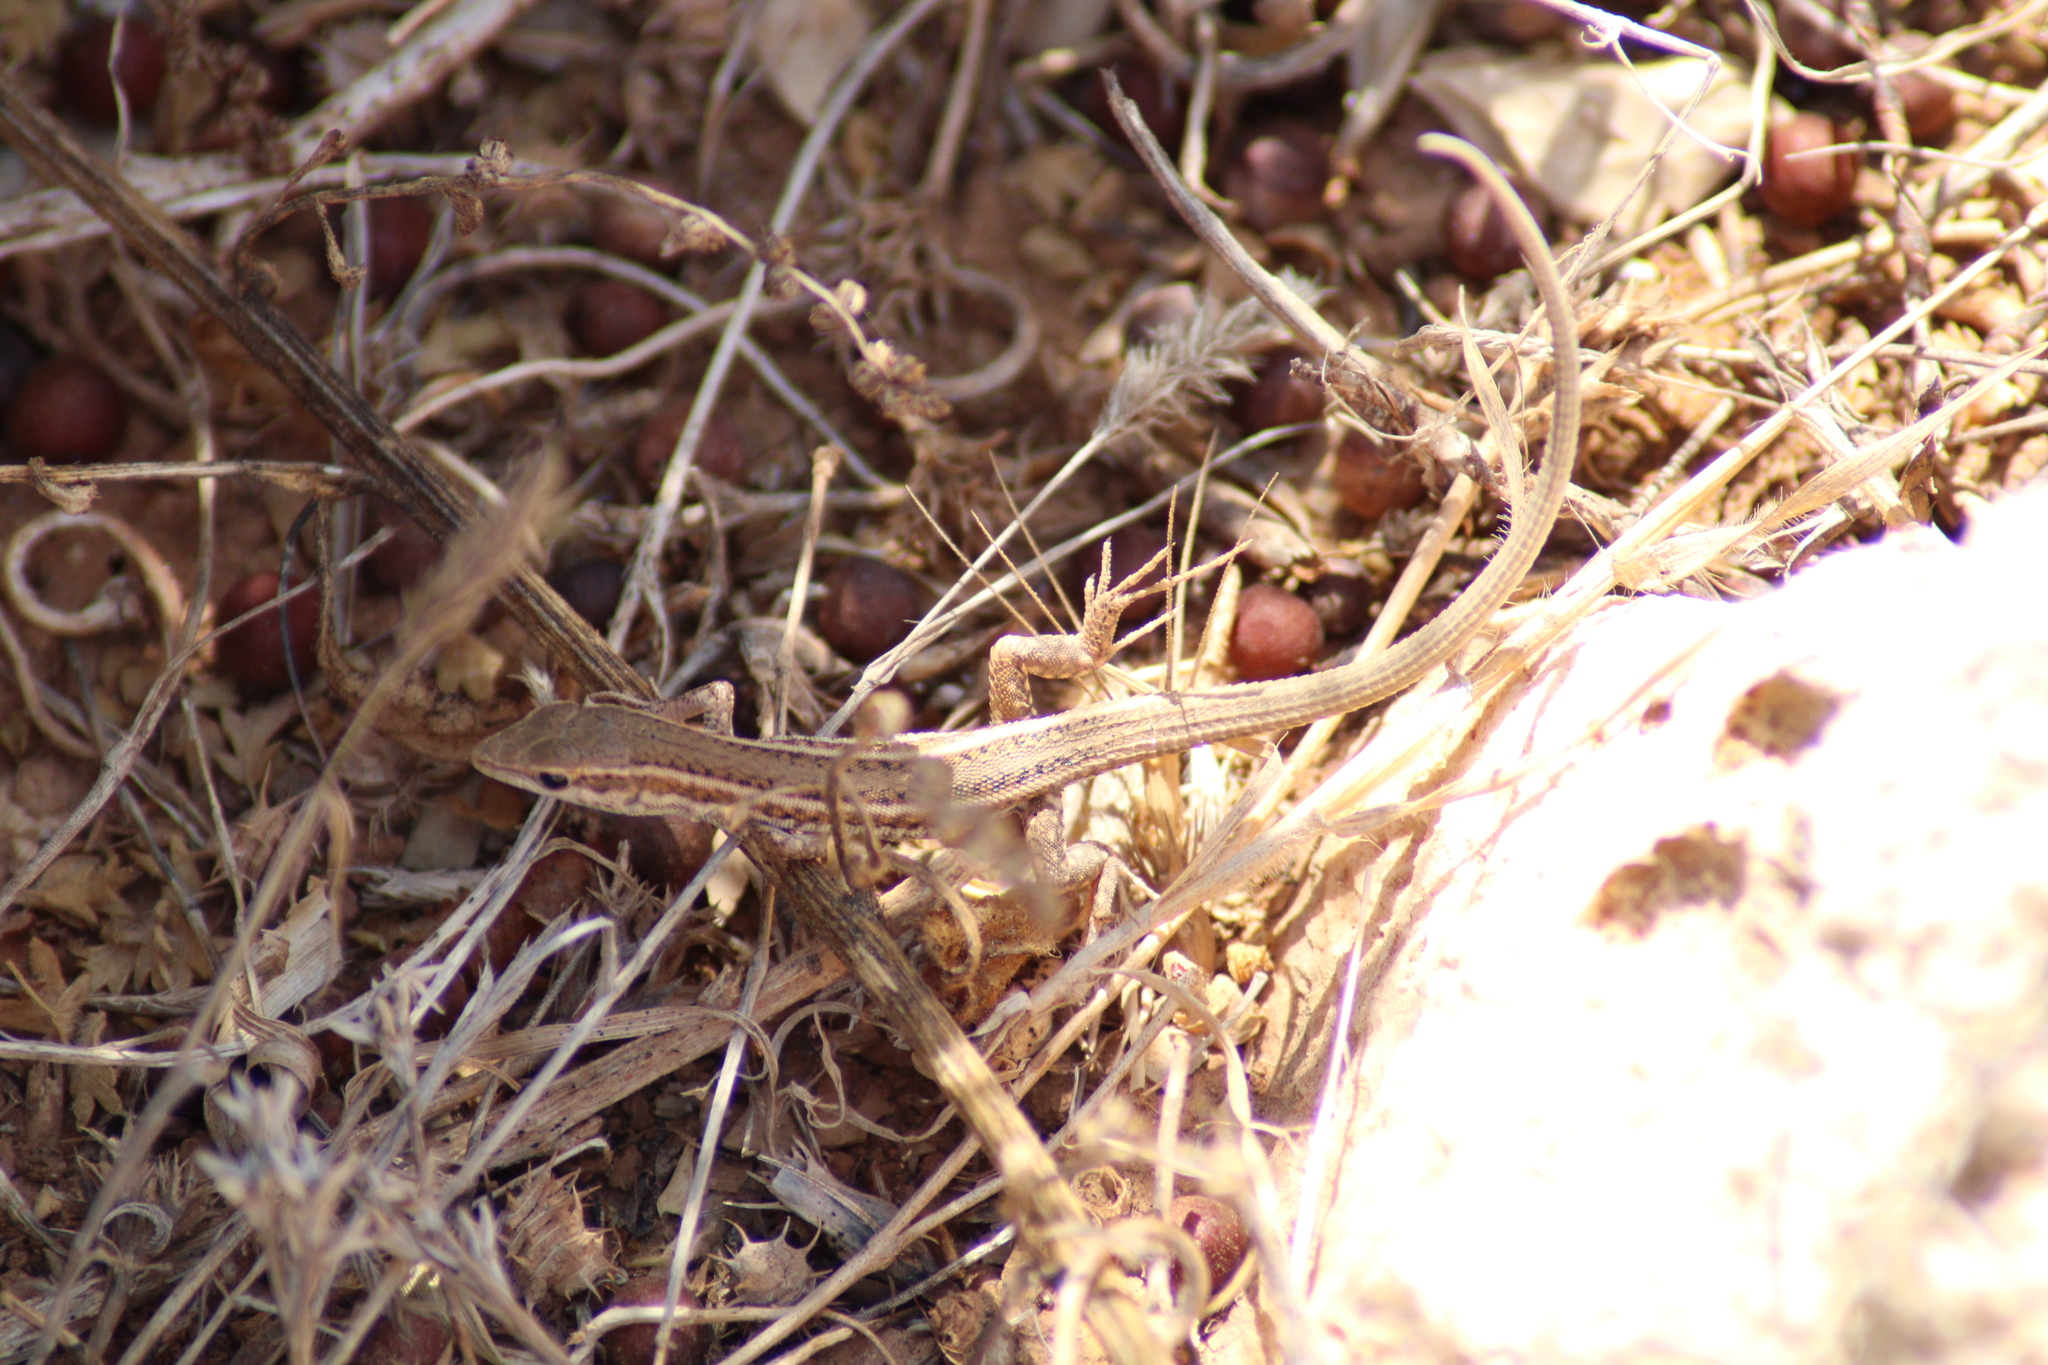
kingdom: Animalia
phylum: Chordata
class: Squamata
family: Lacertidae
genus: Ophisops
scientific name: Ophisops elegans
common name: Snake-eyed lizard
